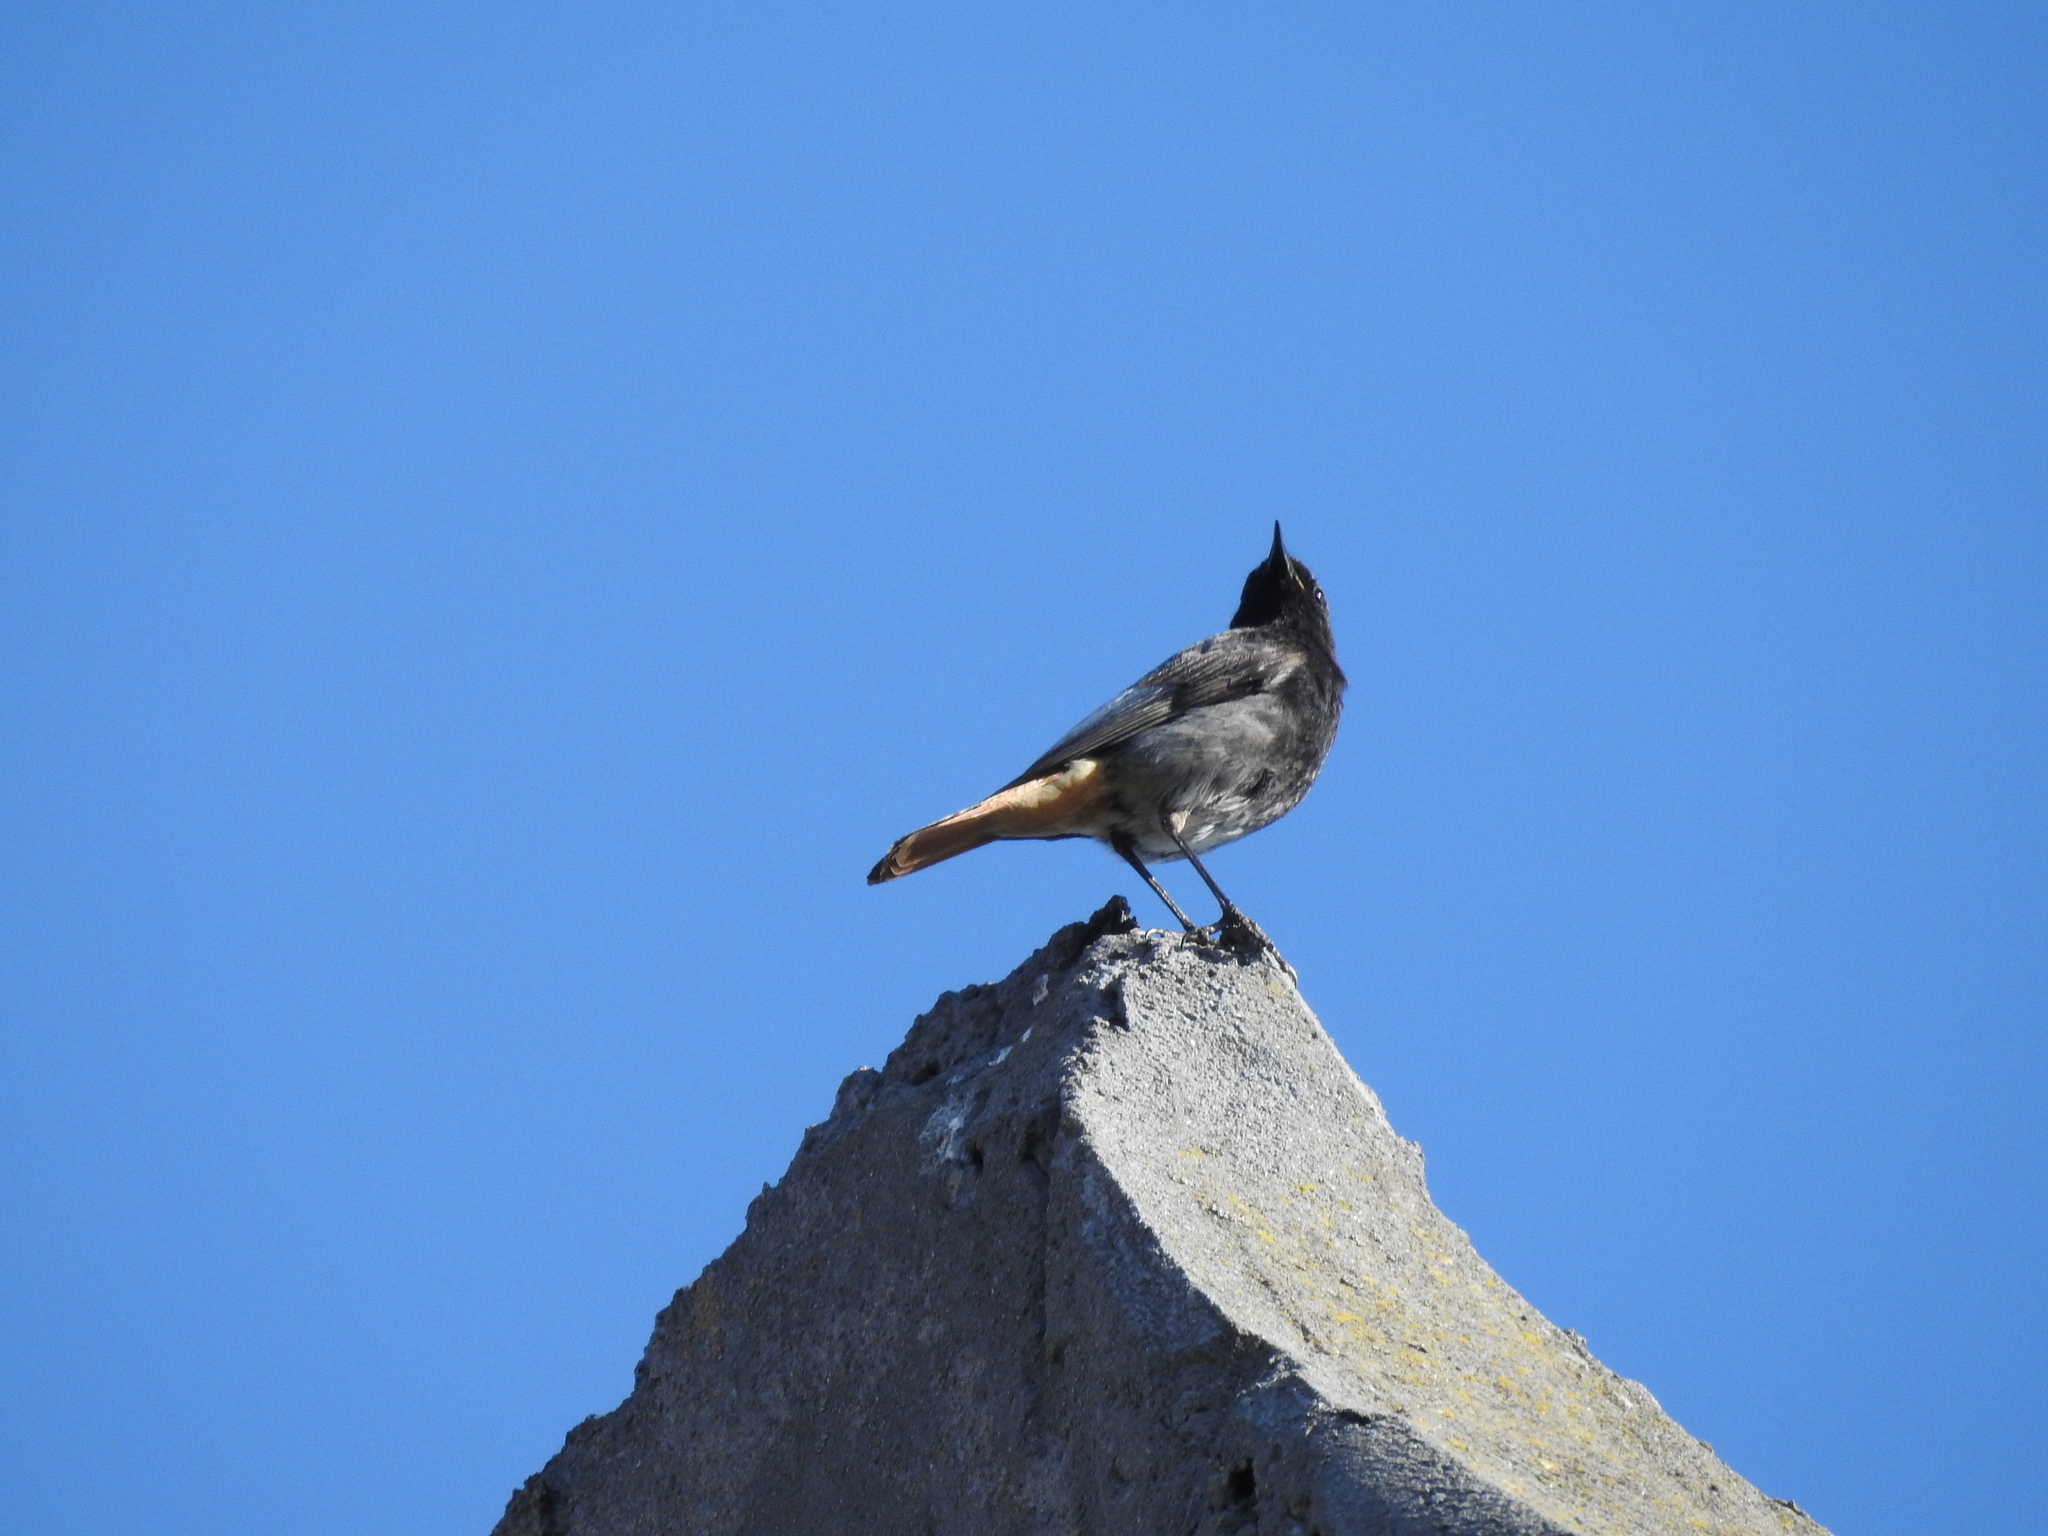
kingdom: Animalia
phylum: Chordata
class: Aves
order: Passeriformes
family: Muscicapidae
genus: Phoenicurus
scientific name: Phoenicurus ochruros
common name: Black redstart
